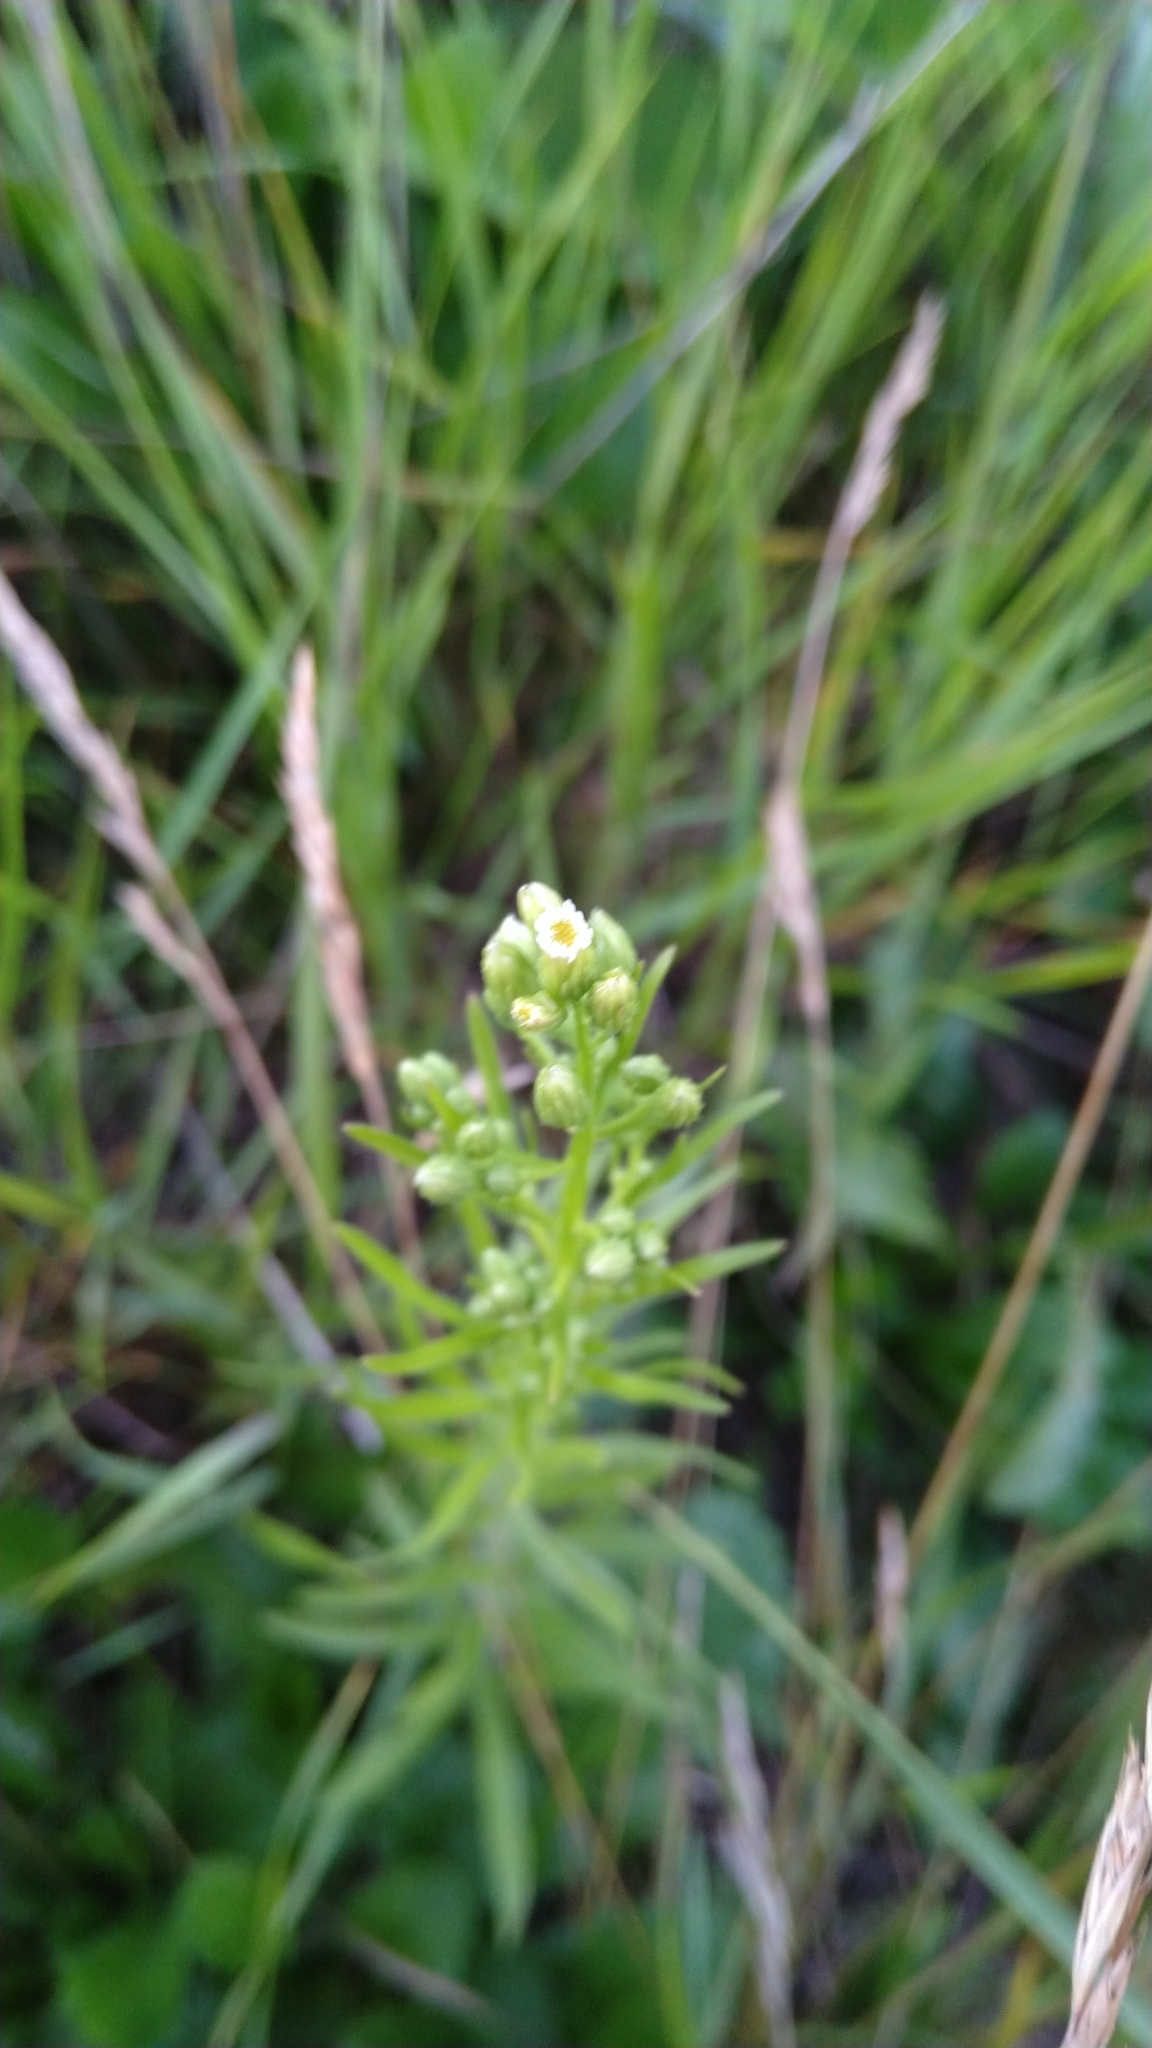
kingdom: Plantae
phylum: Tracheophyta
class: Magnoliopsida
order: Asterales
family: Asteraceae
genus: Erigeron
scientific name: Erigeron canadensis
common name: Canadian fleabane
